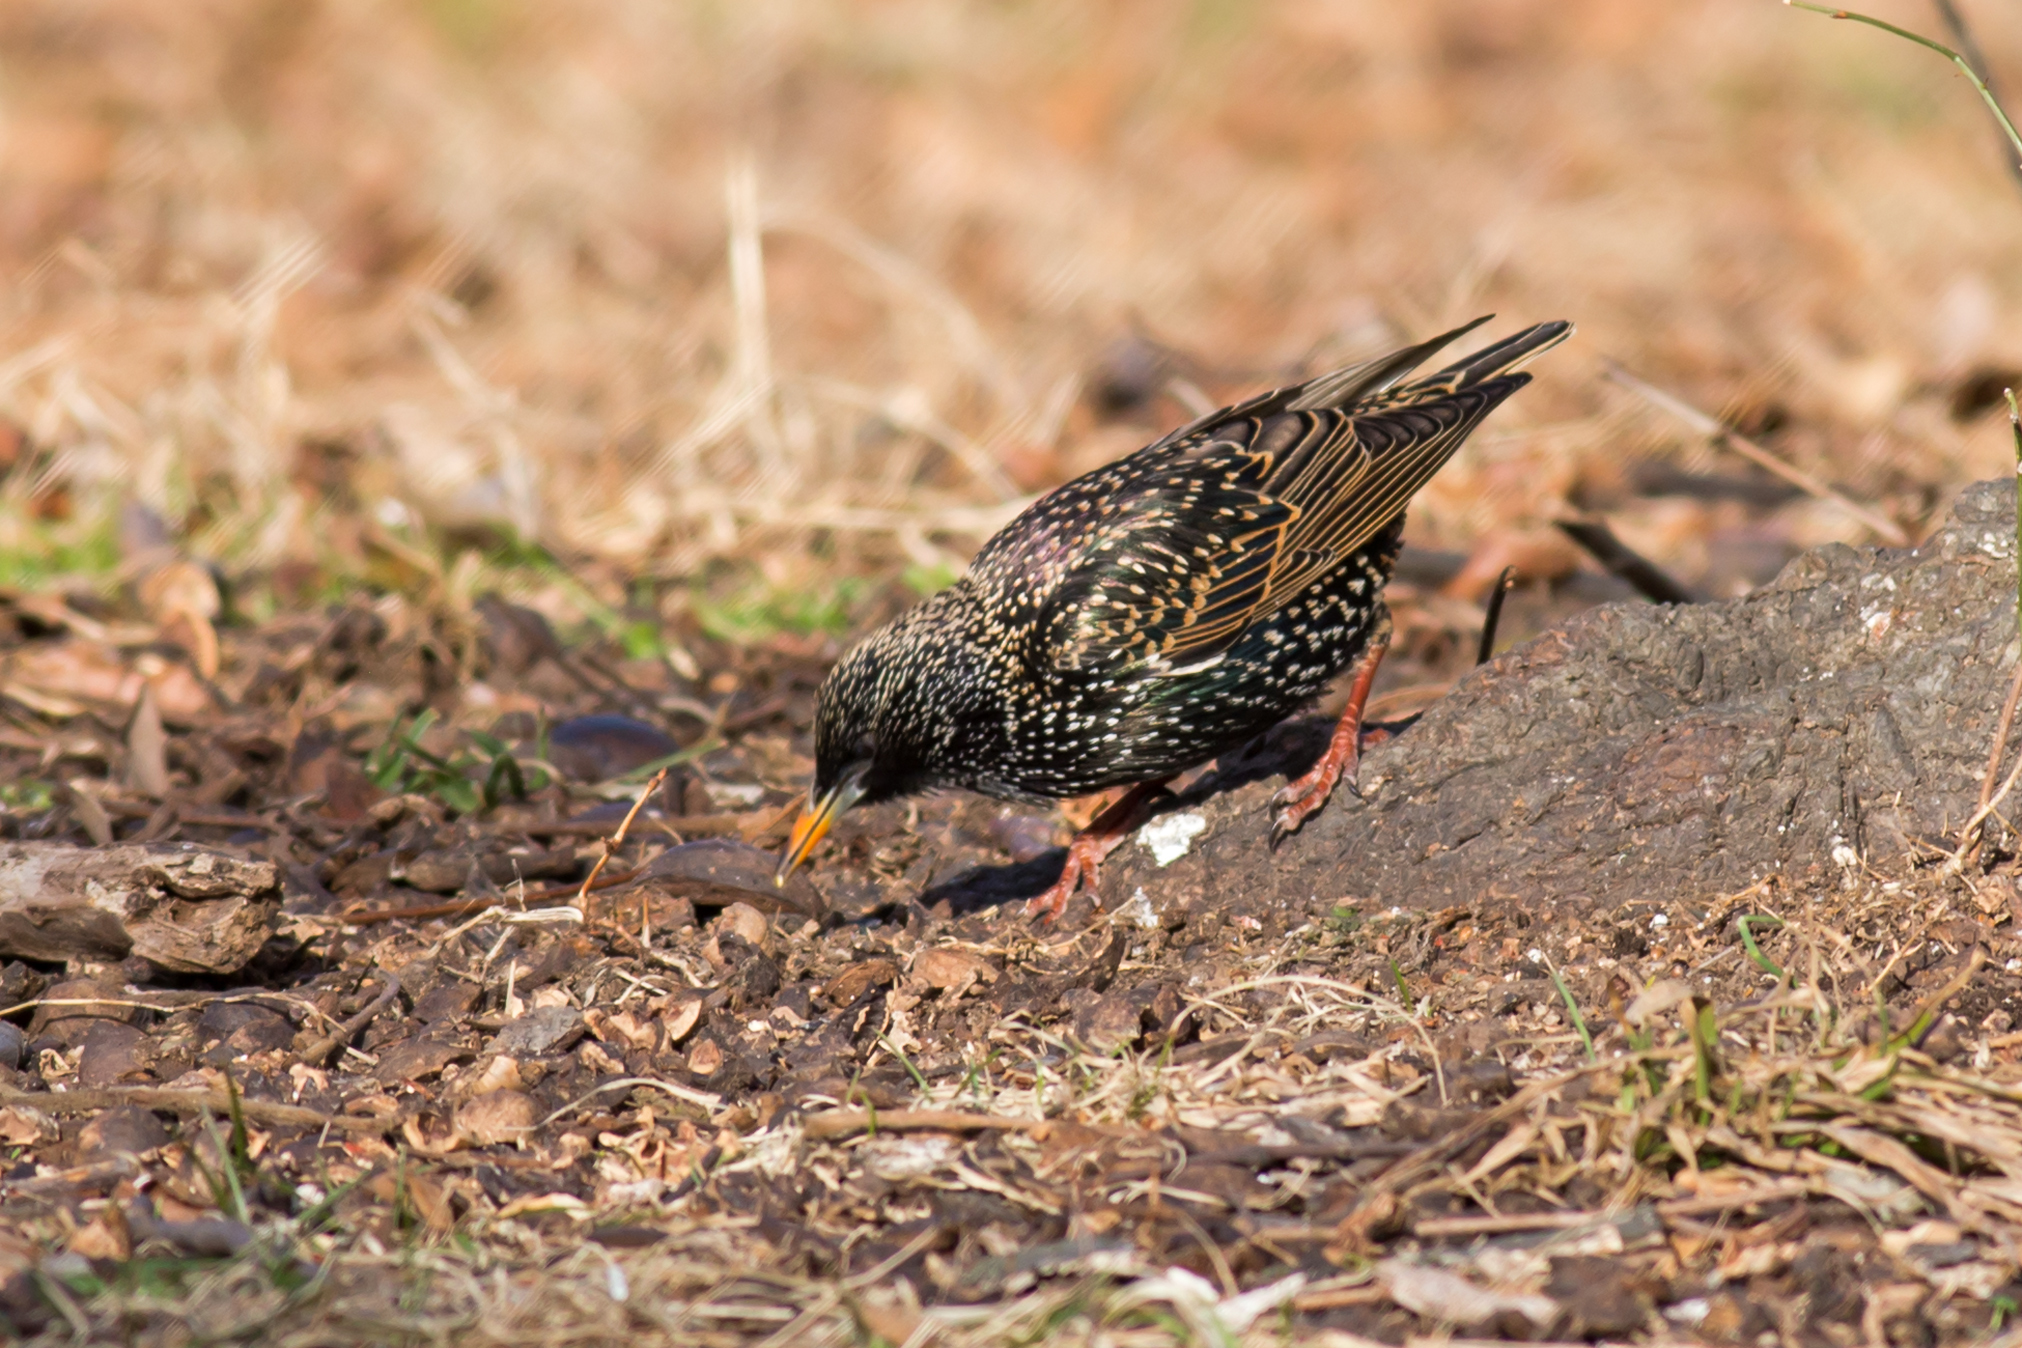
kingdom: Animalia
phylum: Chordata
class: Aves
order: Passeriformes
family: Sturnidae
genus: Sturnus
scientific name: Sturnus vulgaris
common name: Common starling
